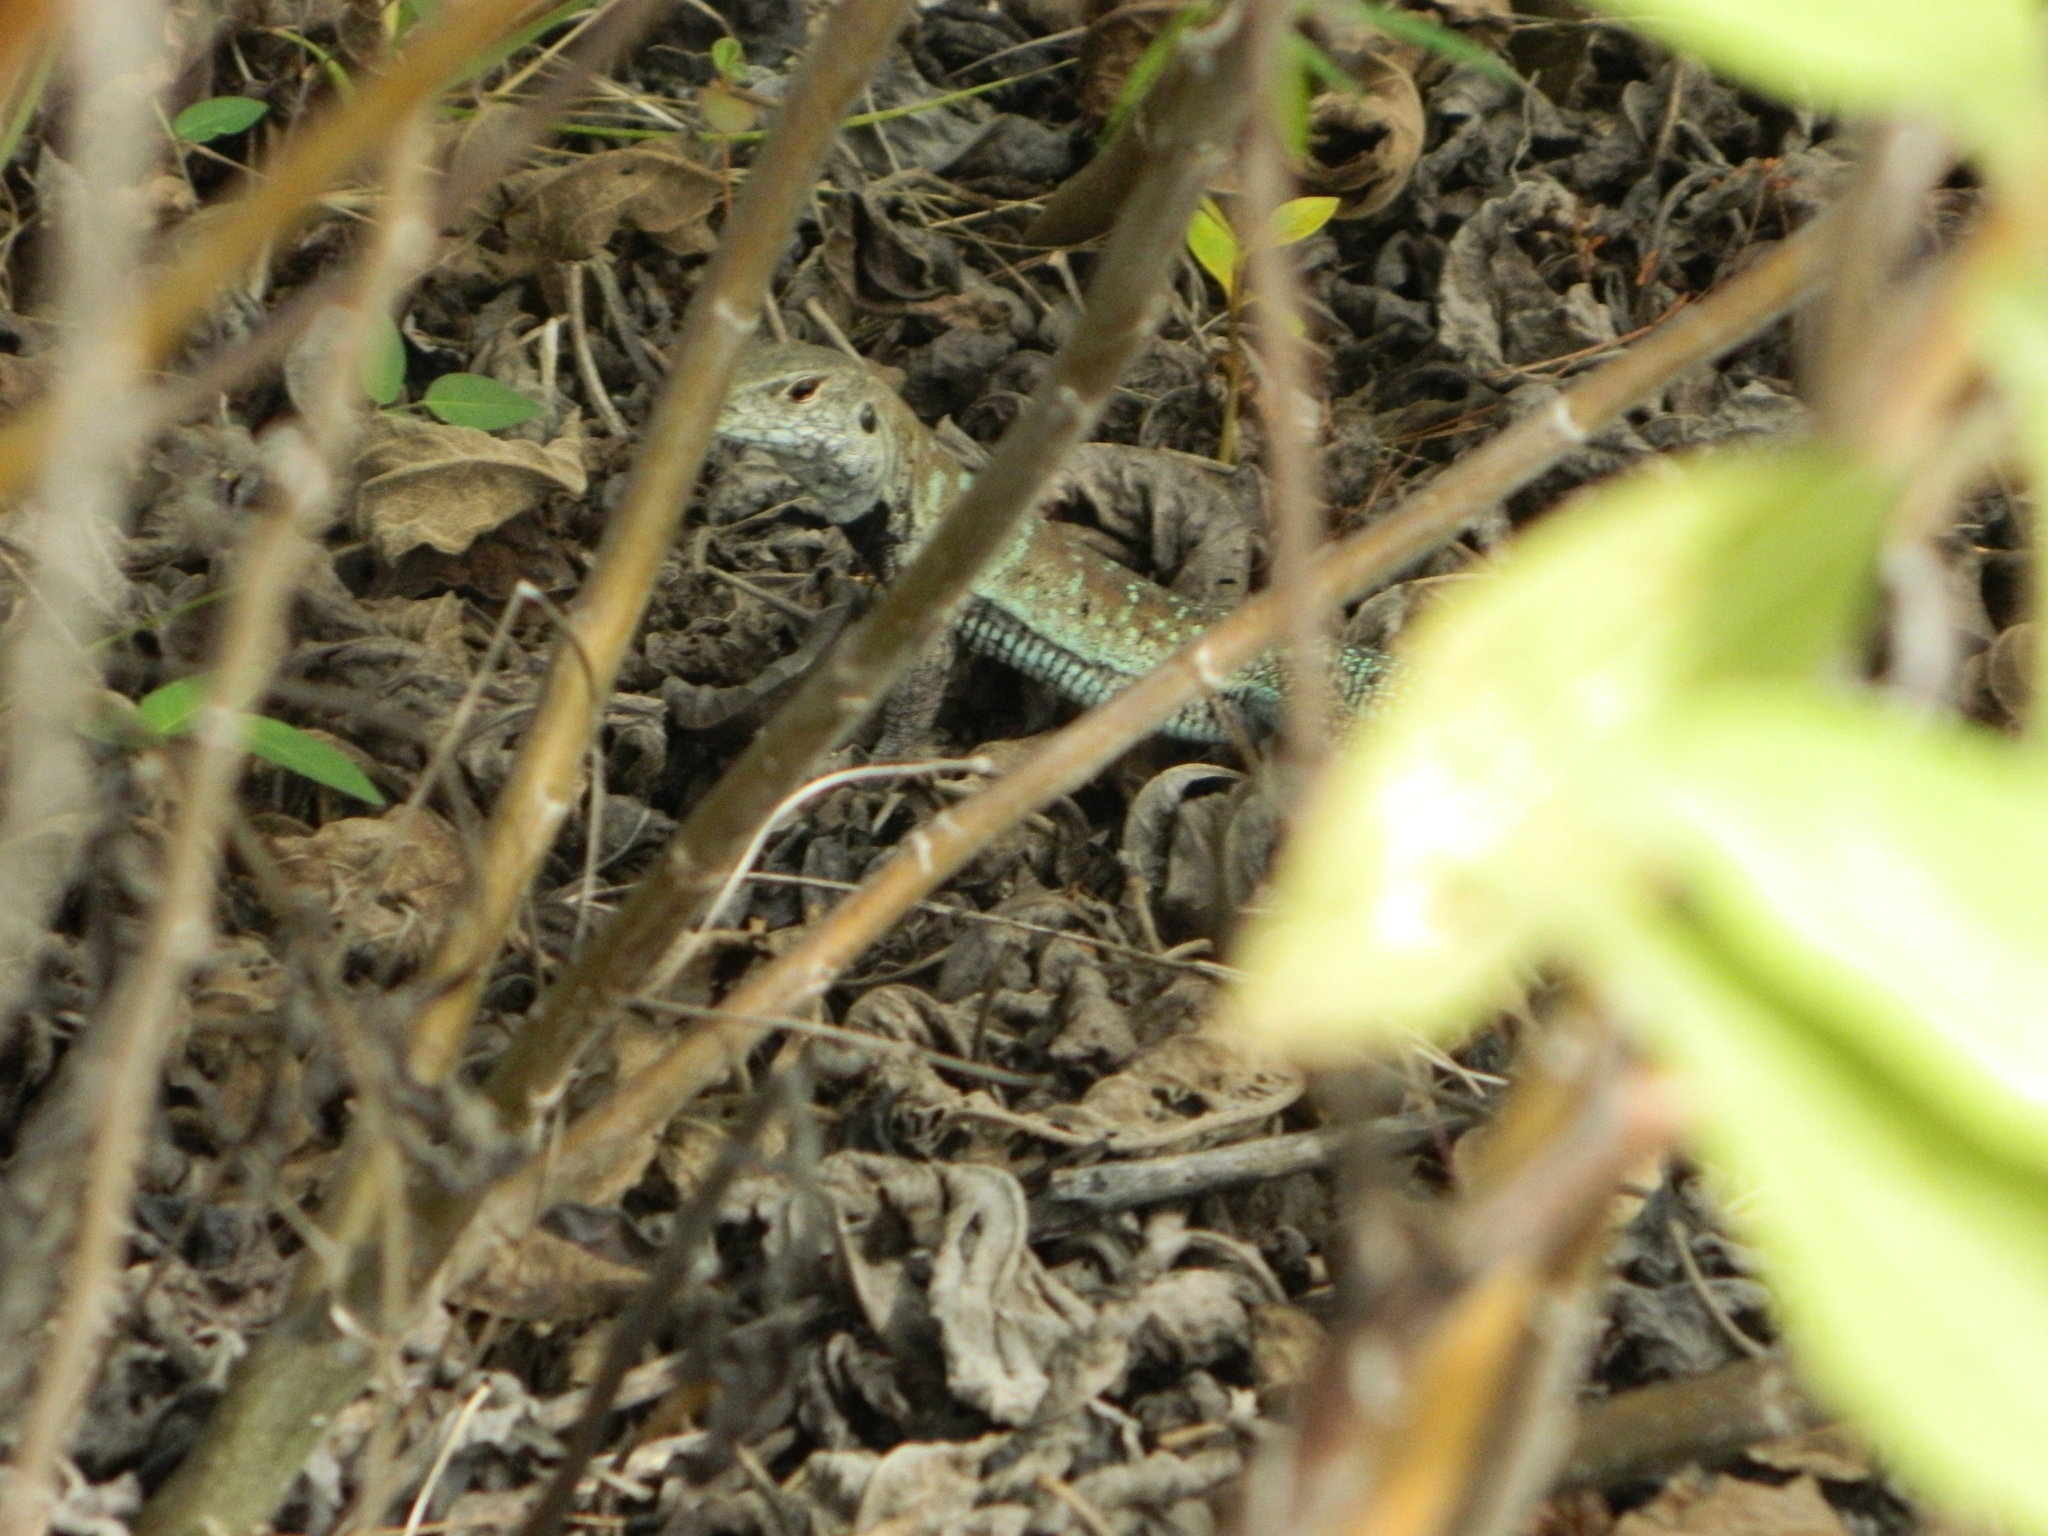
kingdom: Animalia
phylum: Chordata
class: Squamata
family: Teiidae
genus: Pholidoscelis
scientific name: Pholidoscelis griswoldi
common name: Antiguan ameiva
